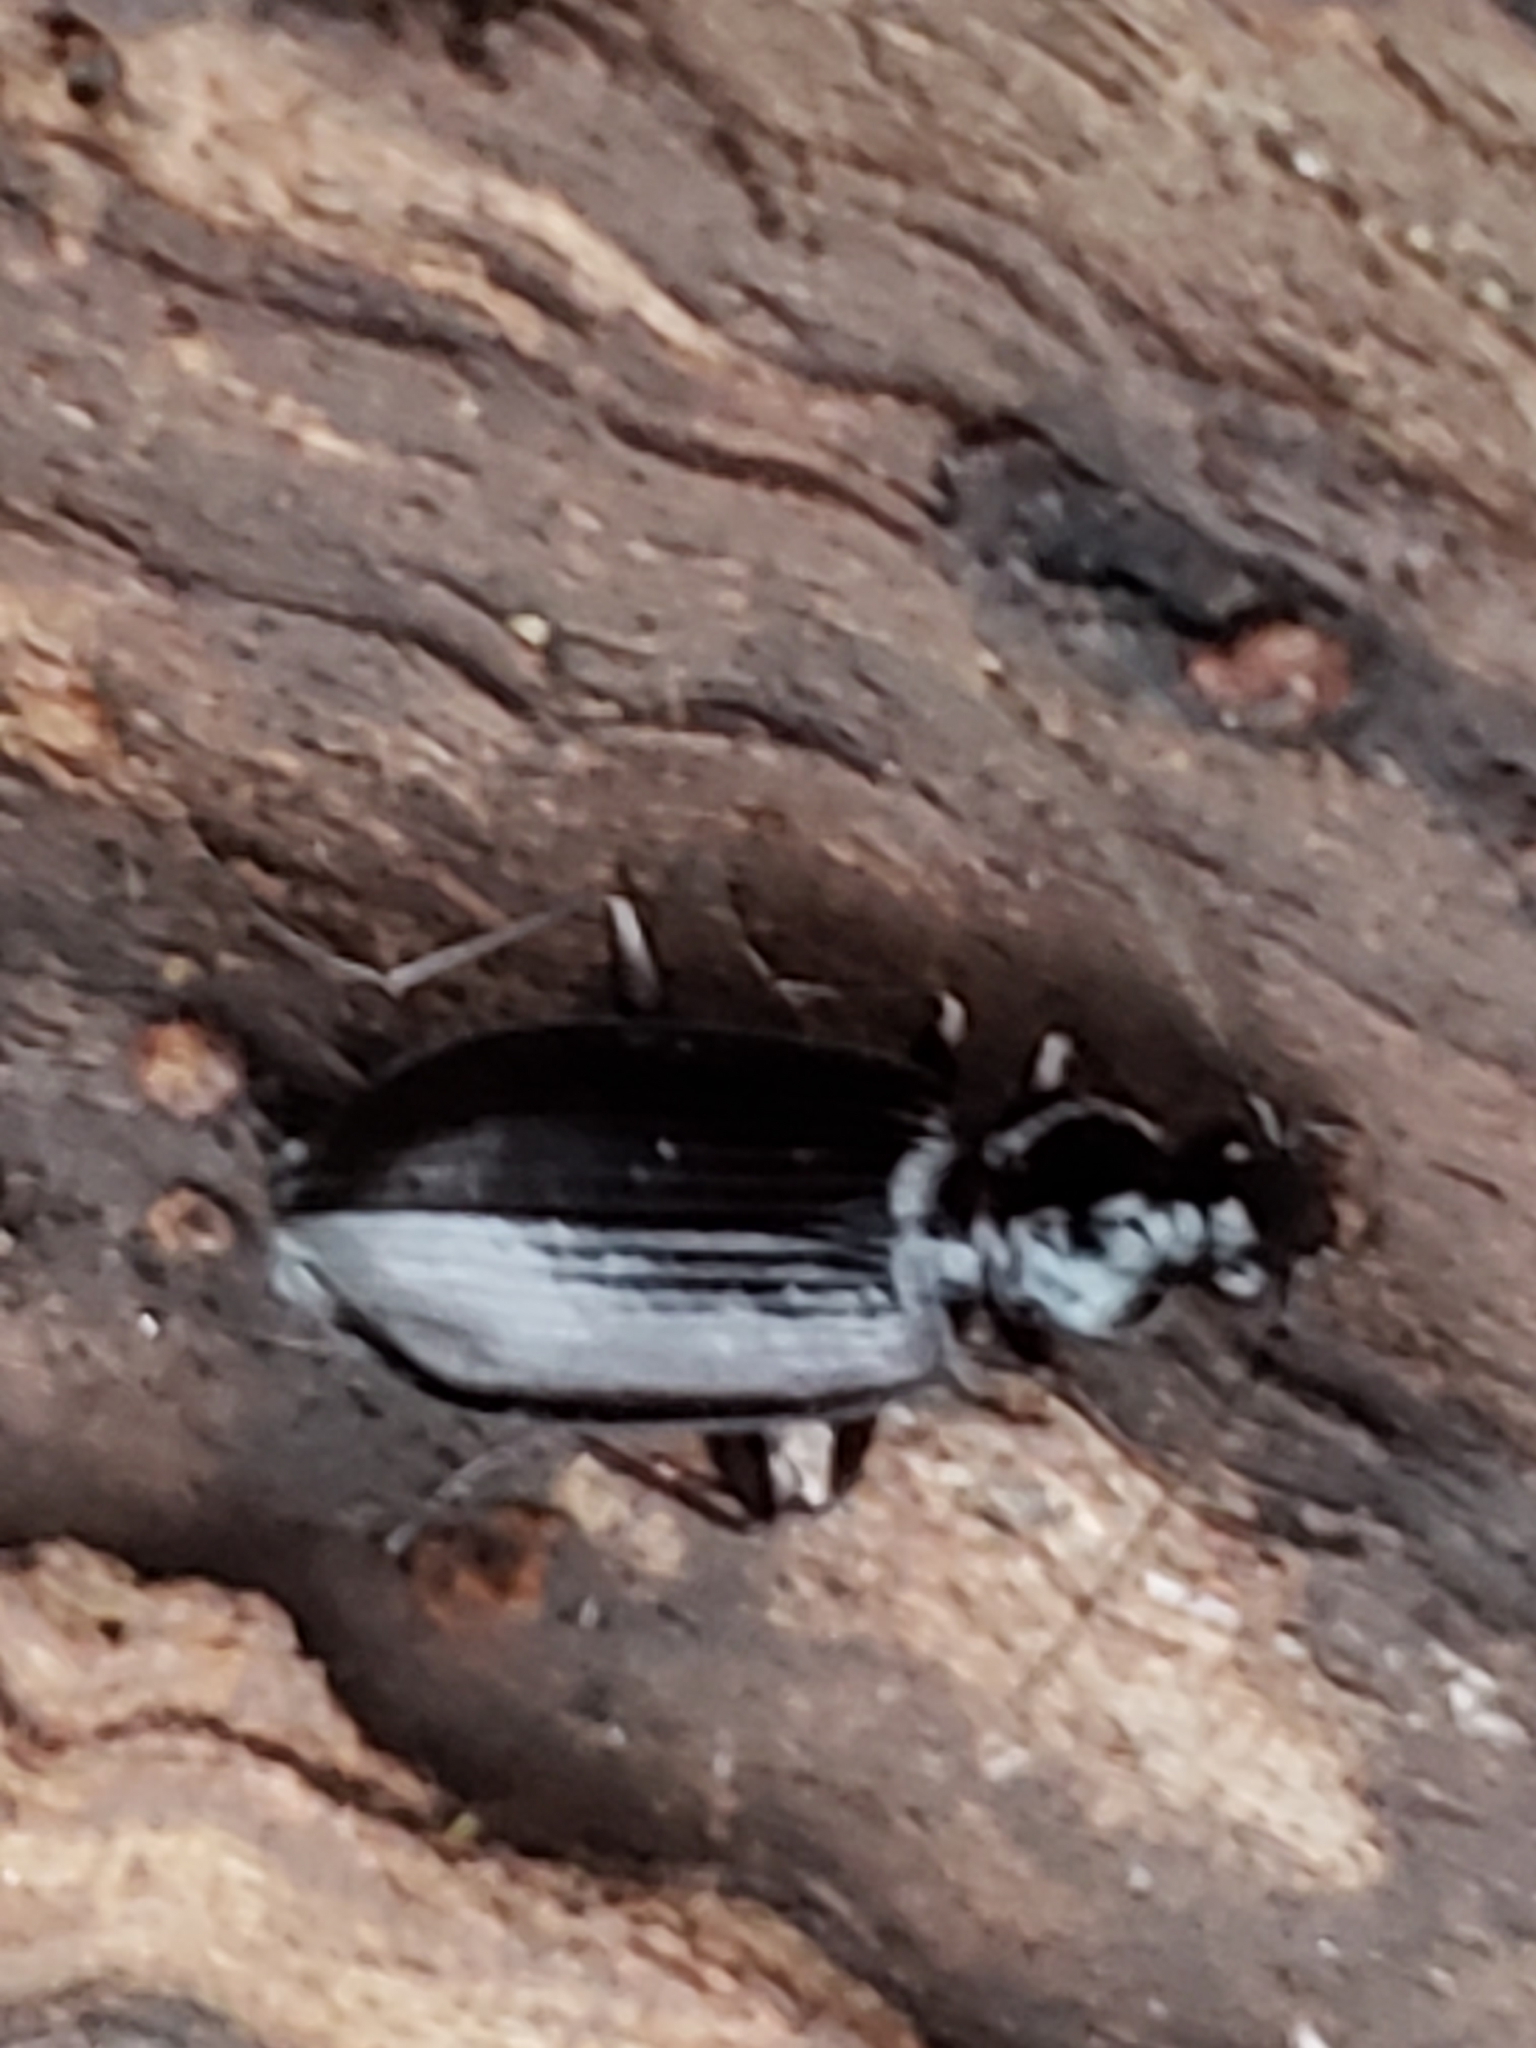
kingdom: Animalia
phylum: Arthropoda
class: Insecta
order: Coleoptera
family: Carabidae
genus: Platynus
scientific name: Platynus cincticollis
